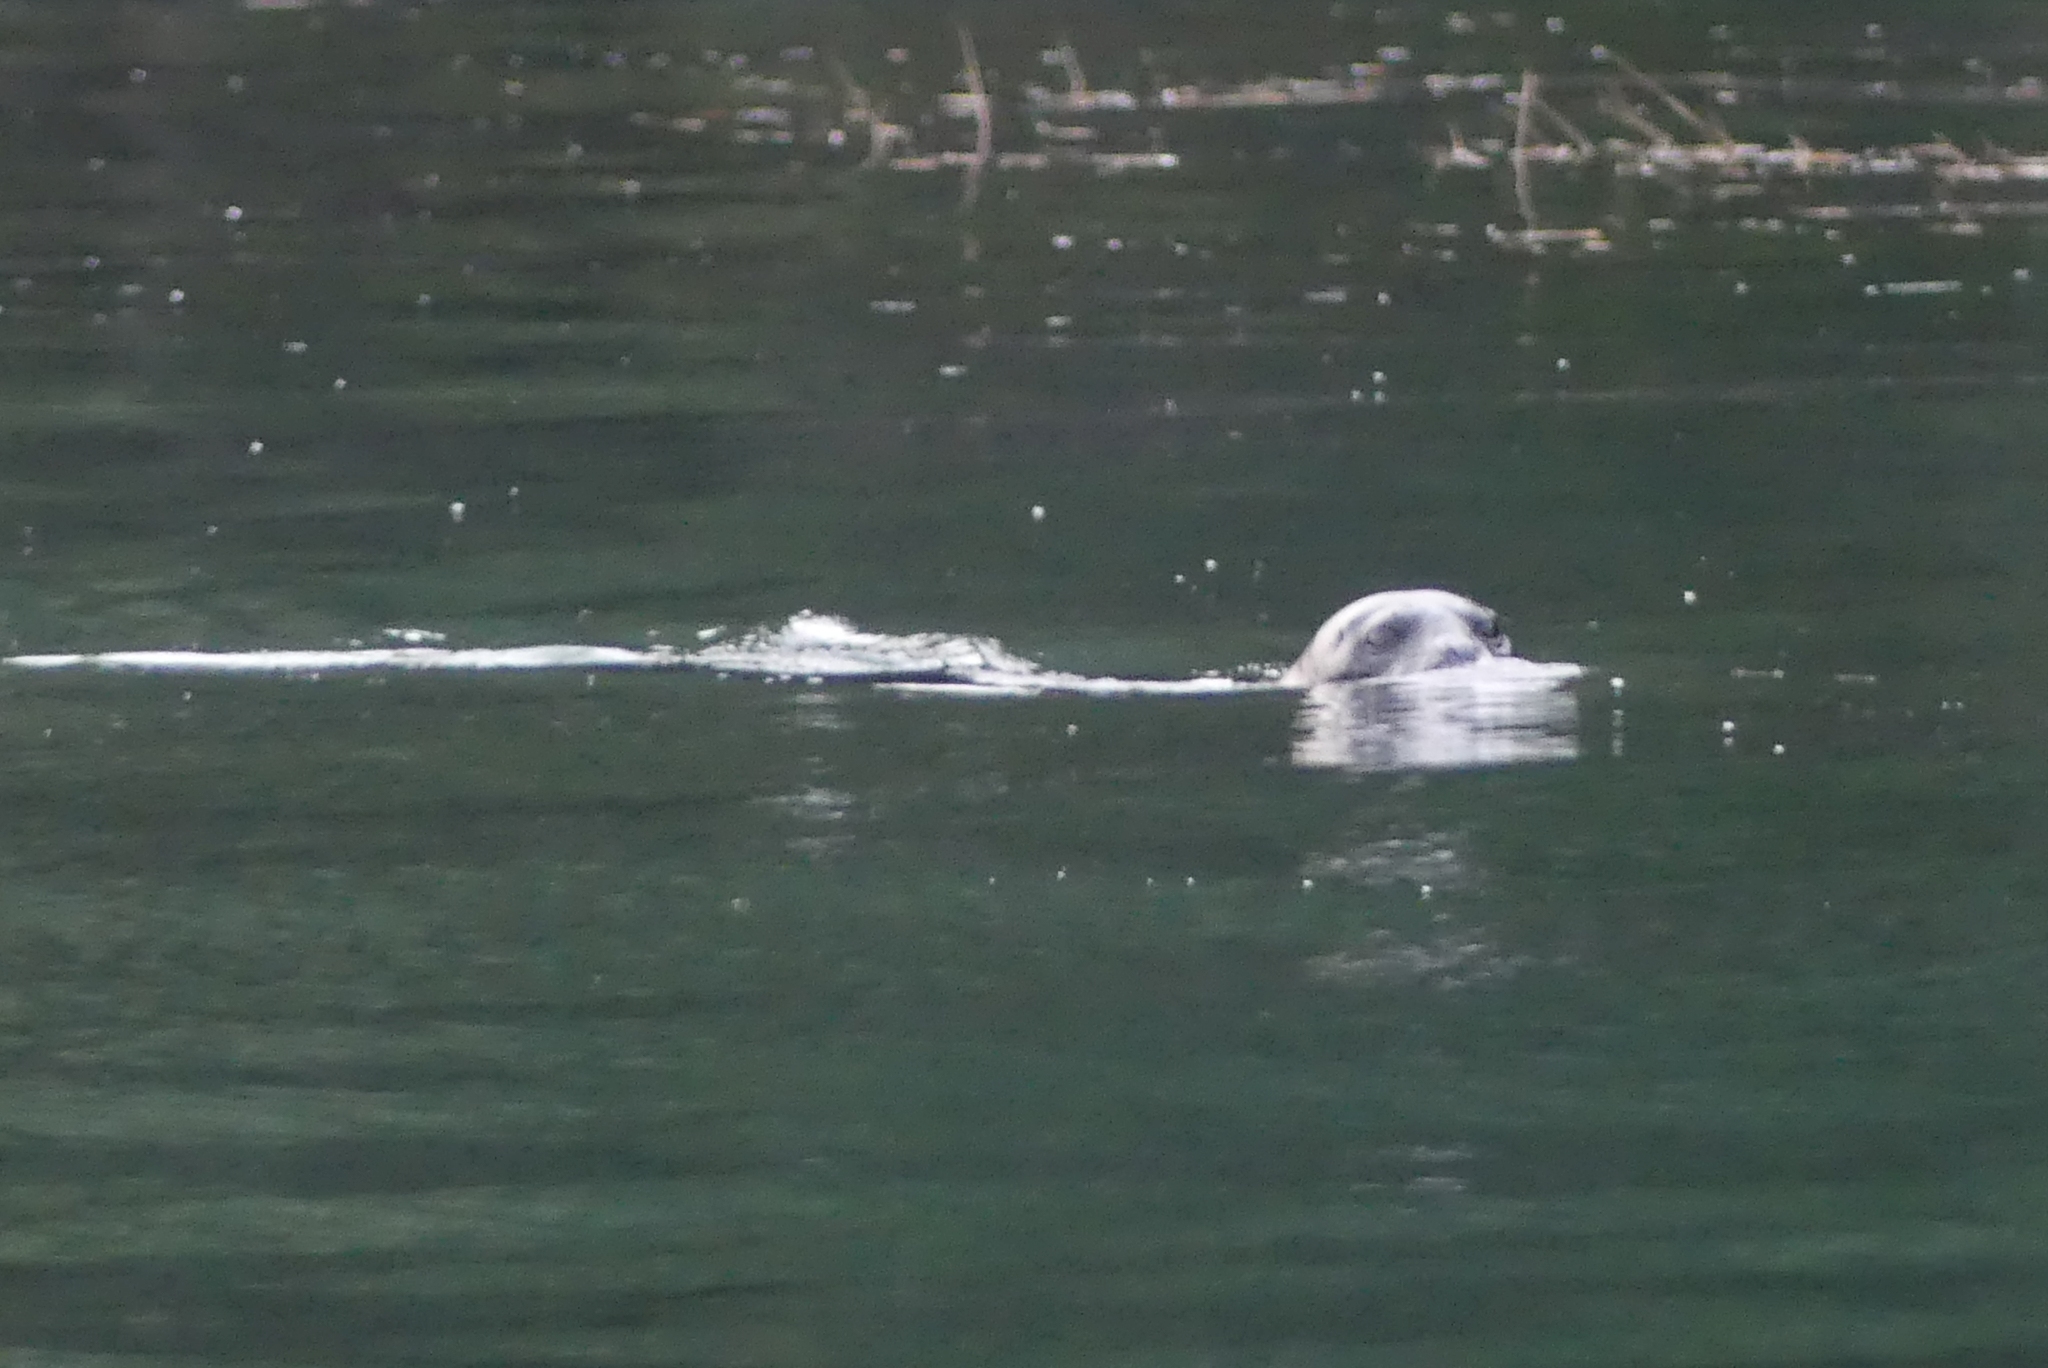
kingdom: Animalia
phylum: Chordata
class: Mammalia
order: Carnivora
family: Phocidae
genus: Phoca
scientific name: Phoca vitulina
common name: Harbor seal
